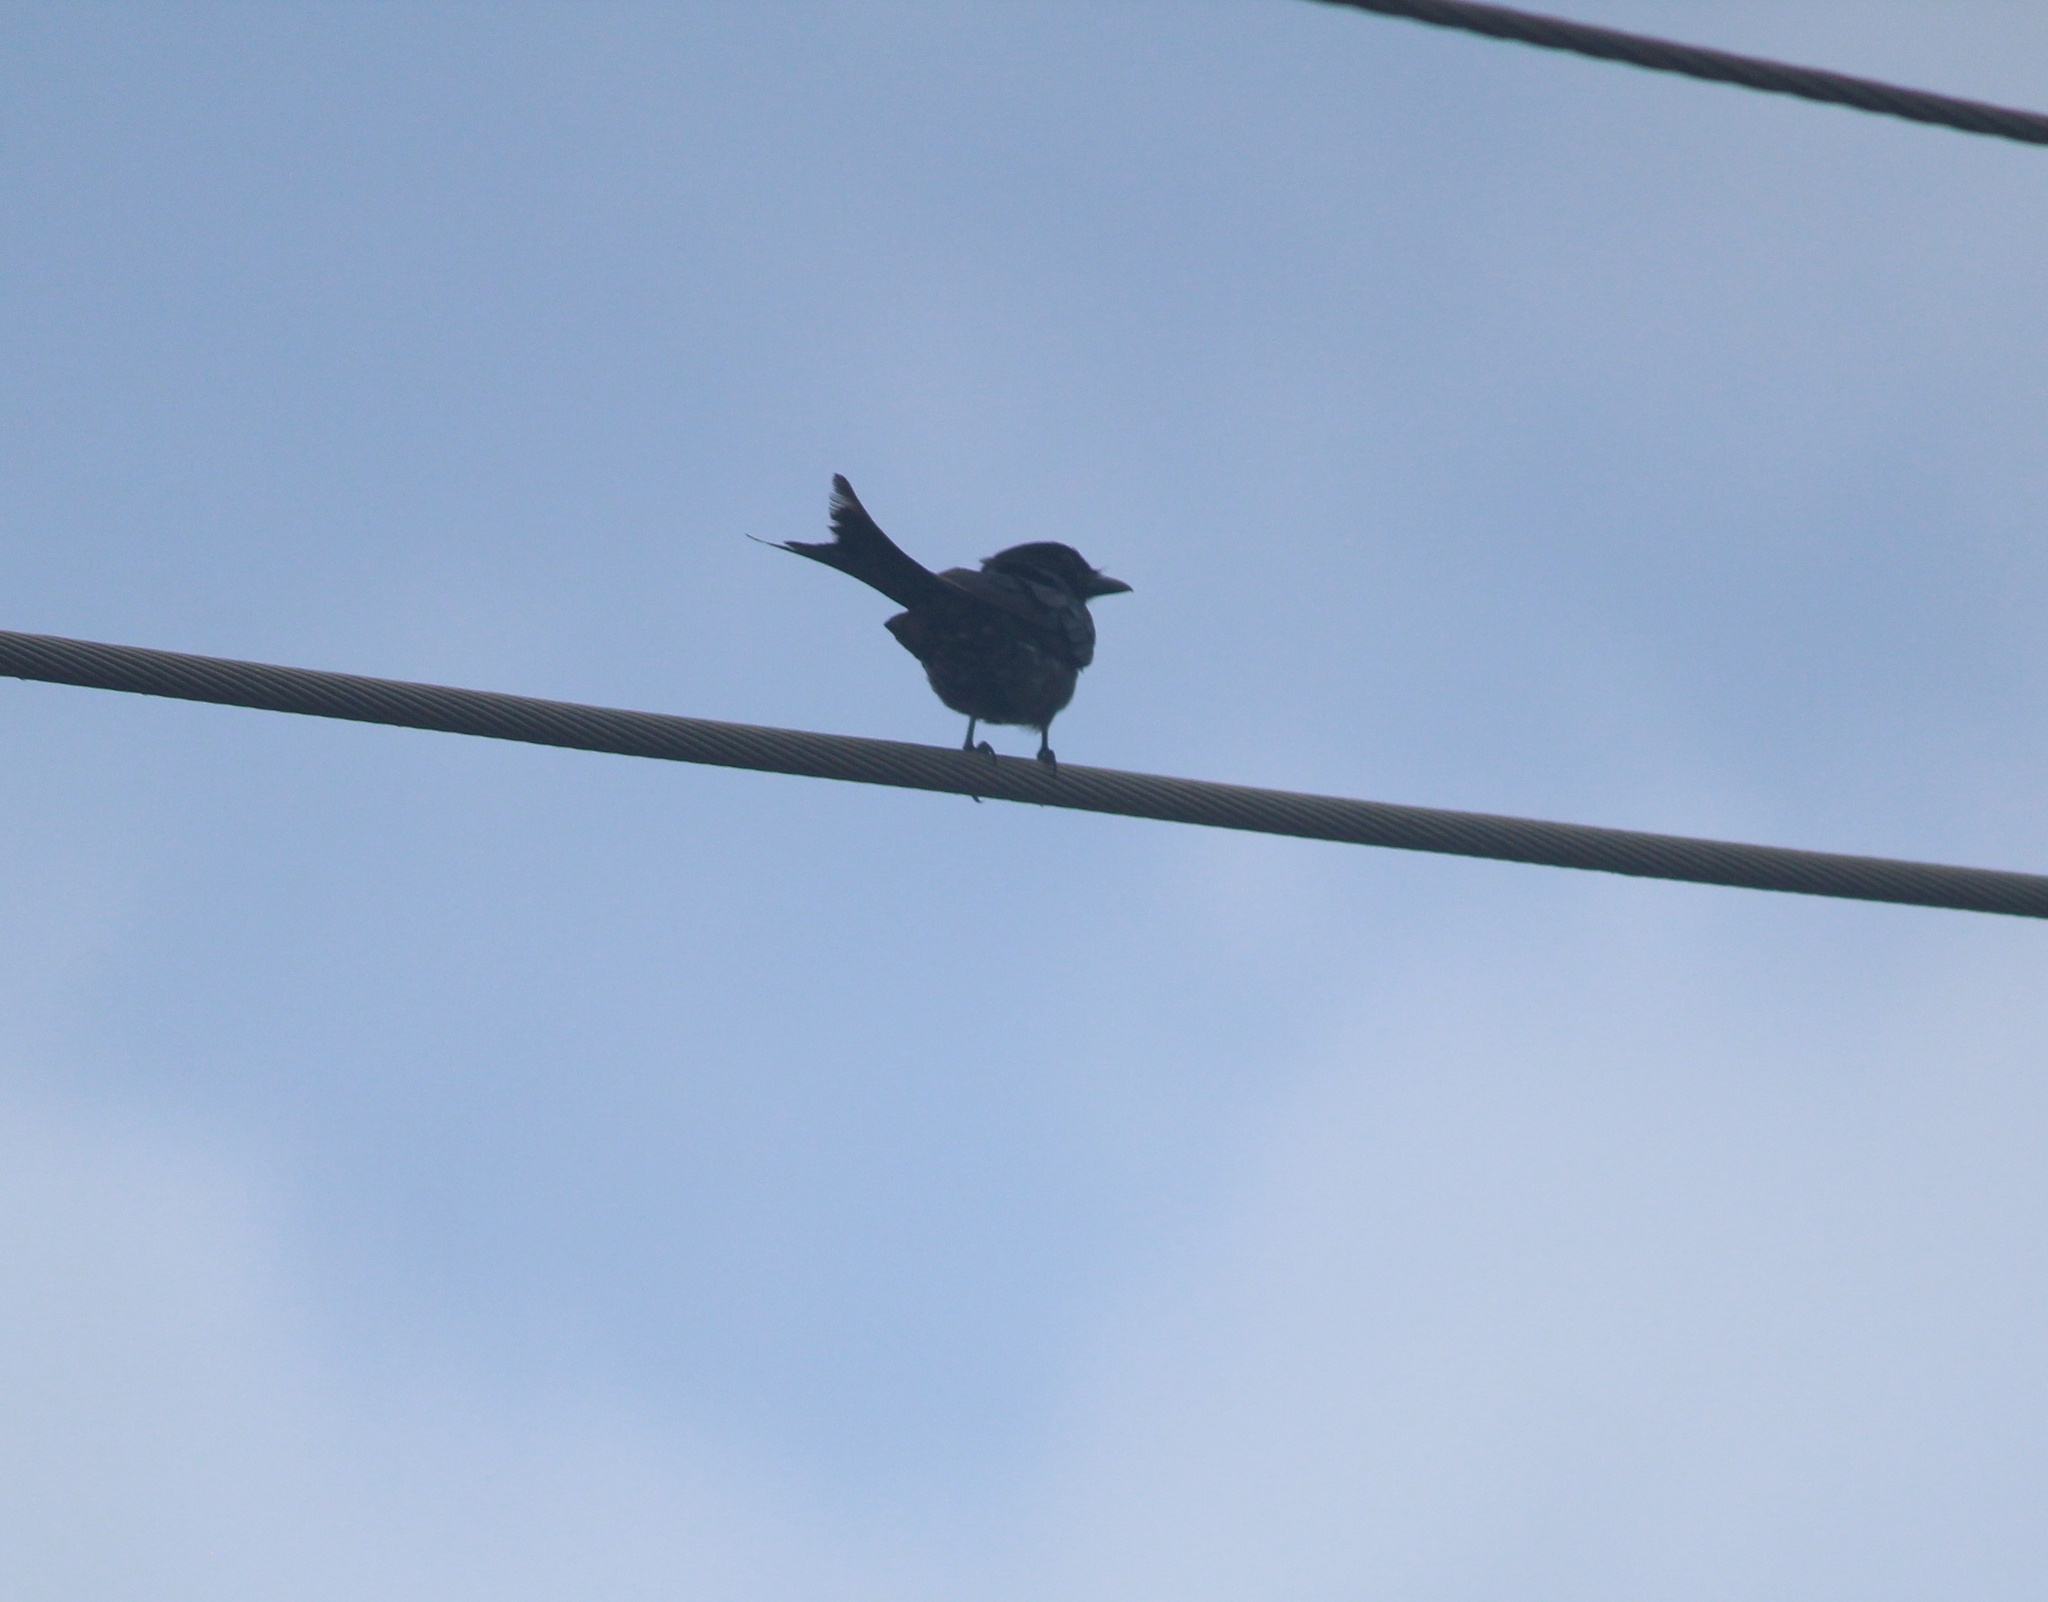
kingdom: Animalia
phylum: Chordata
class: Aves
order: Passeriformes
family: Dicruridae
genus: Dicrurus
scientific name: Dicrurus macrocercus
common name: Black drongo
